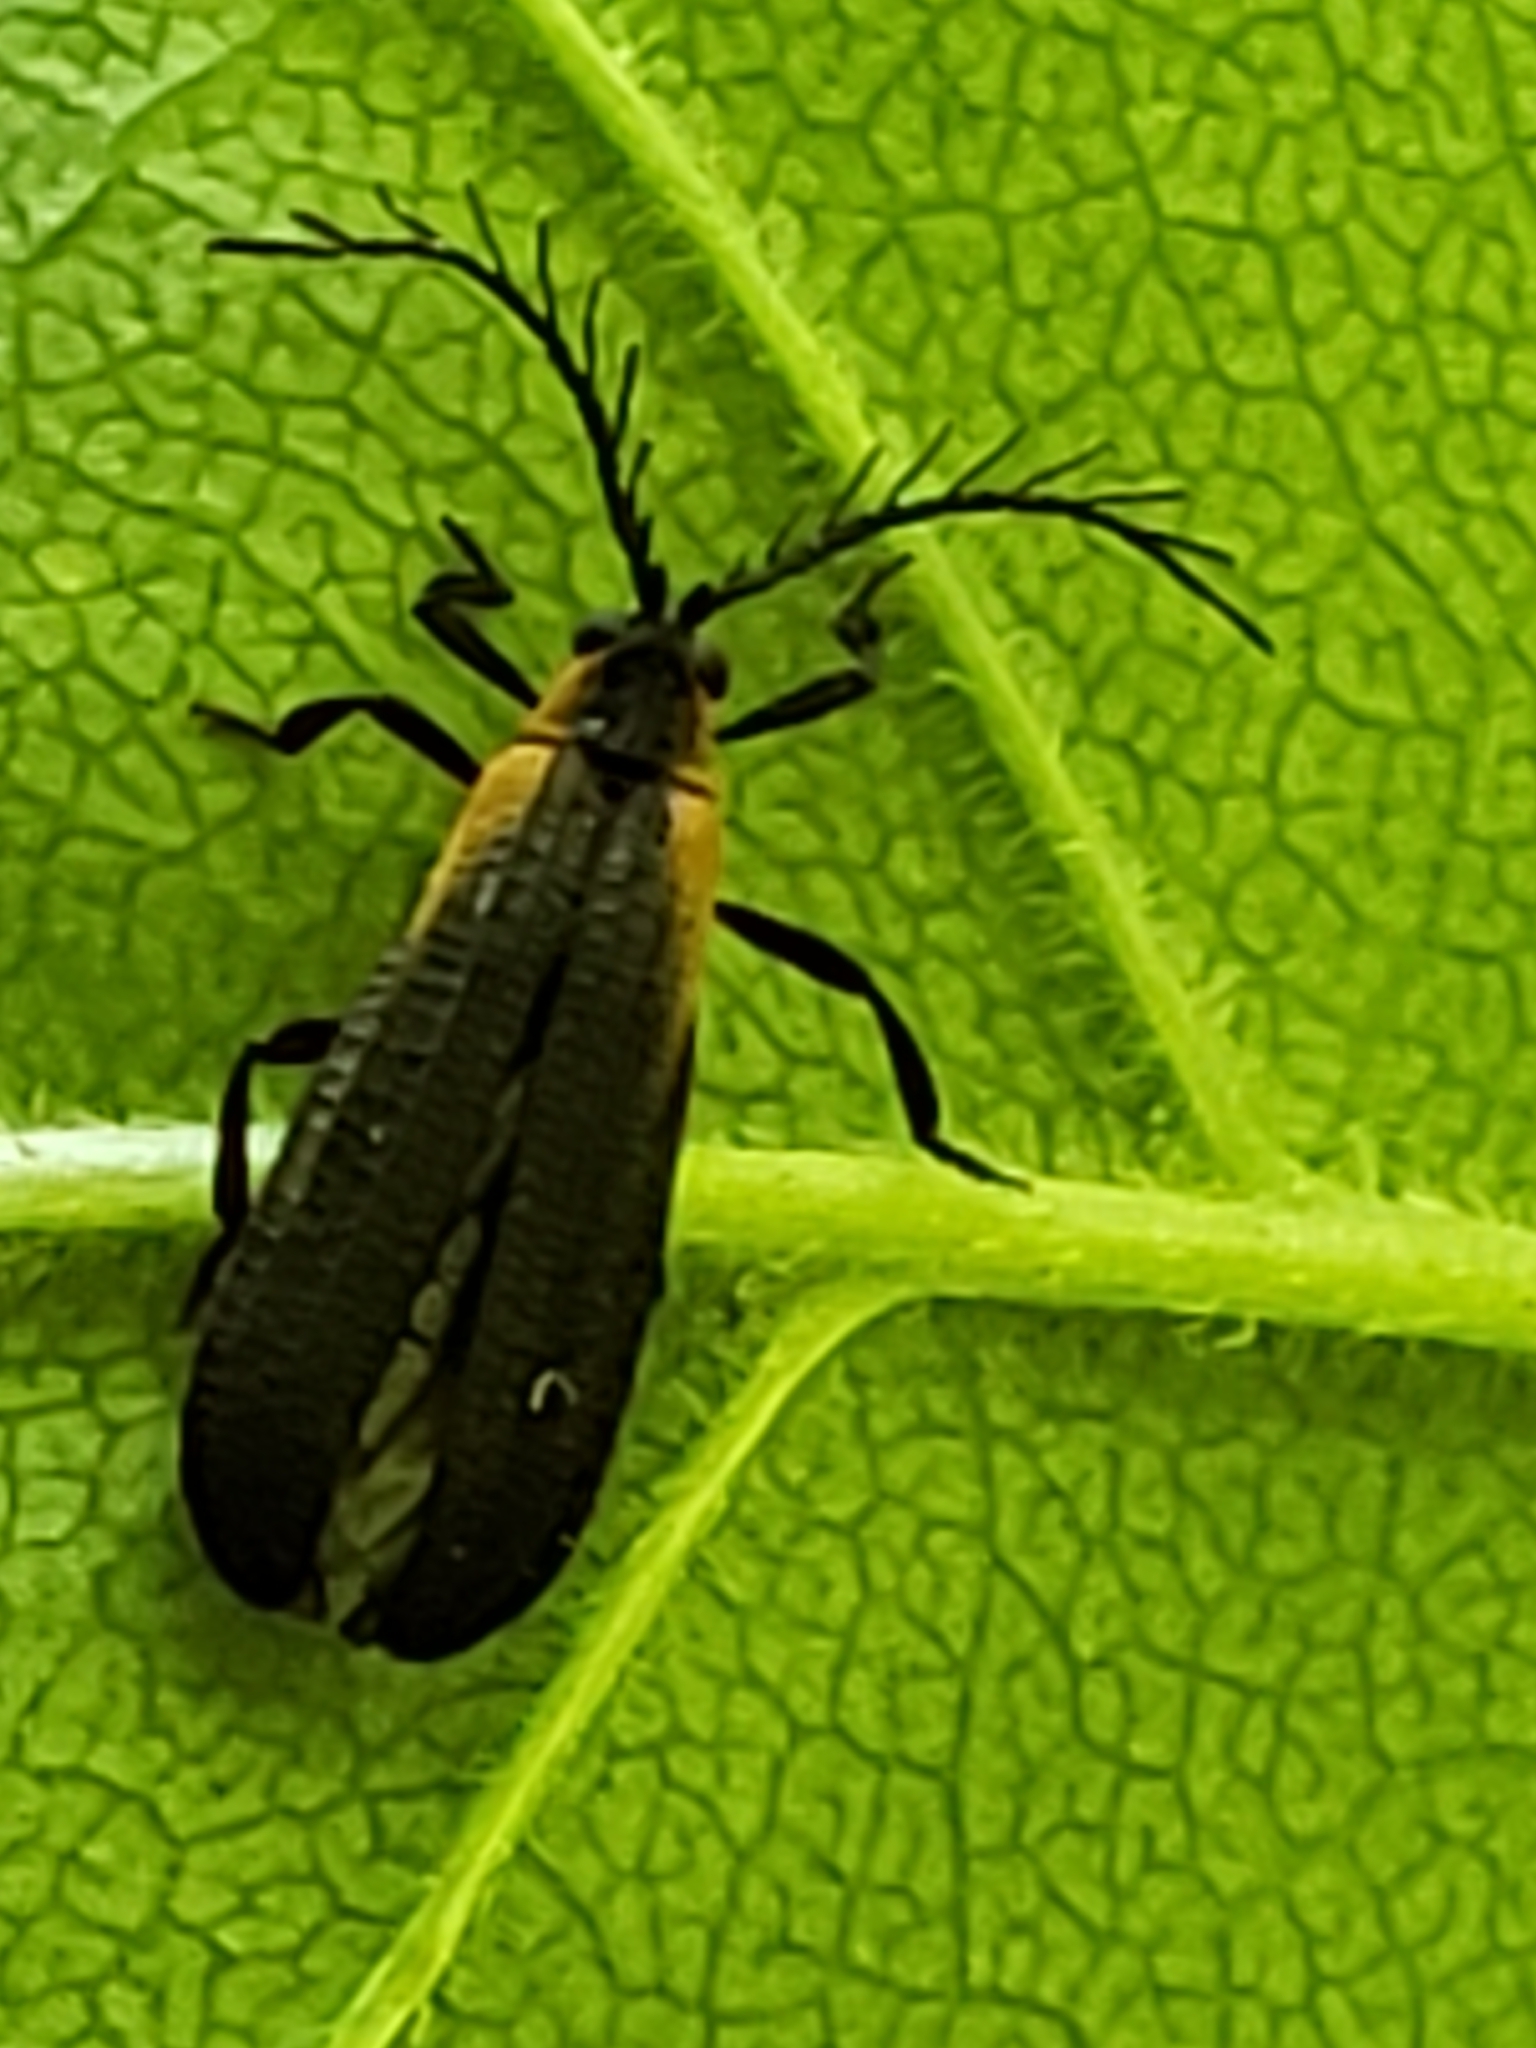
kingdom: Animalia
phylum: Arthropoda
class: Insecta
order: Coleoptera
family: Lycidae
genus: Leptoceletes
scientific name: Leptoceletes basalis
